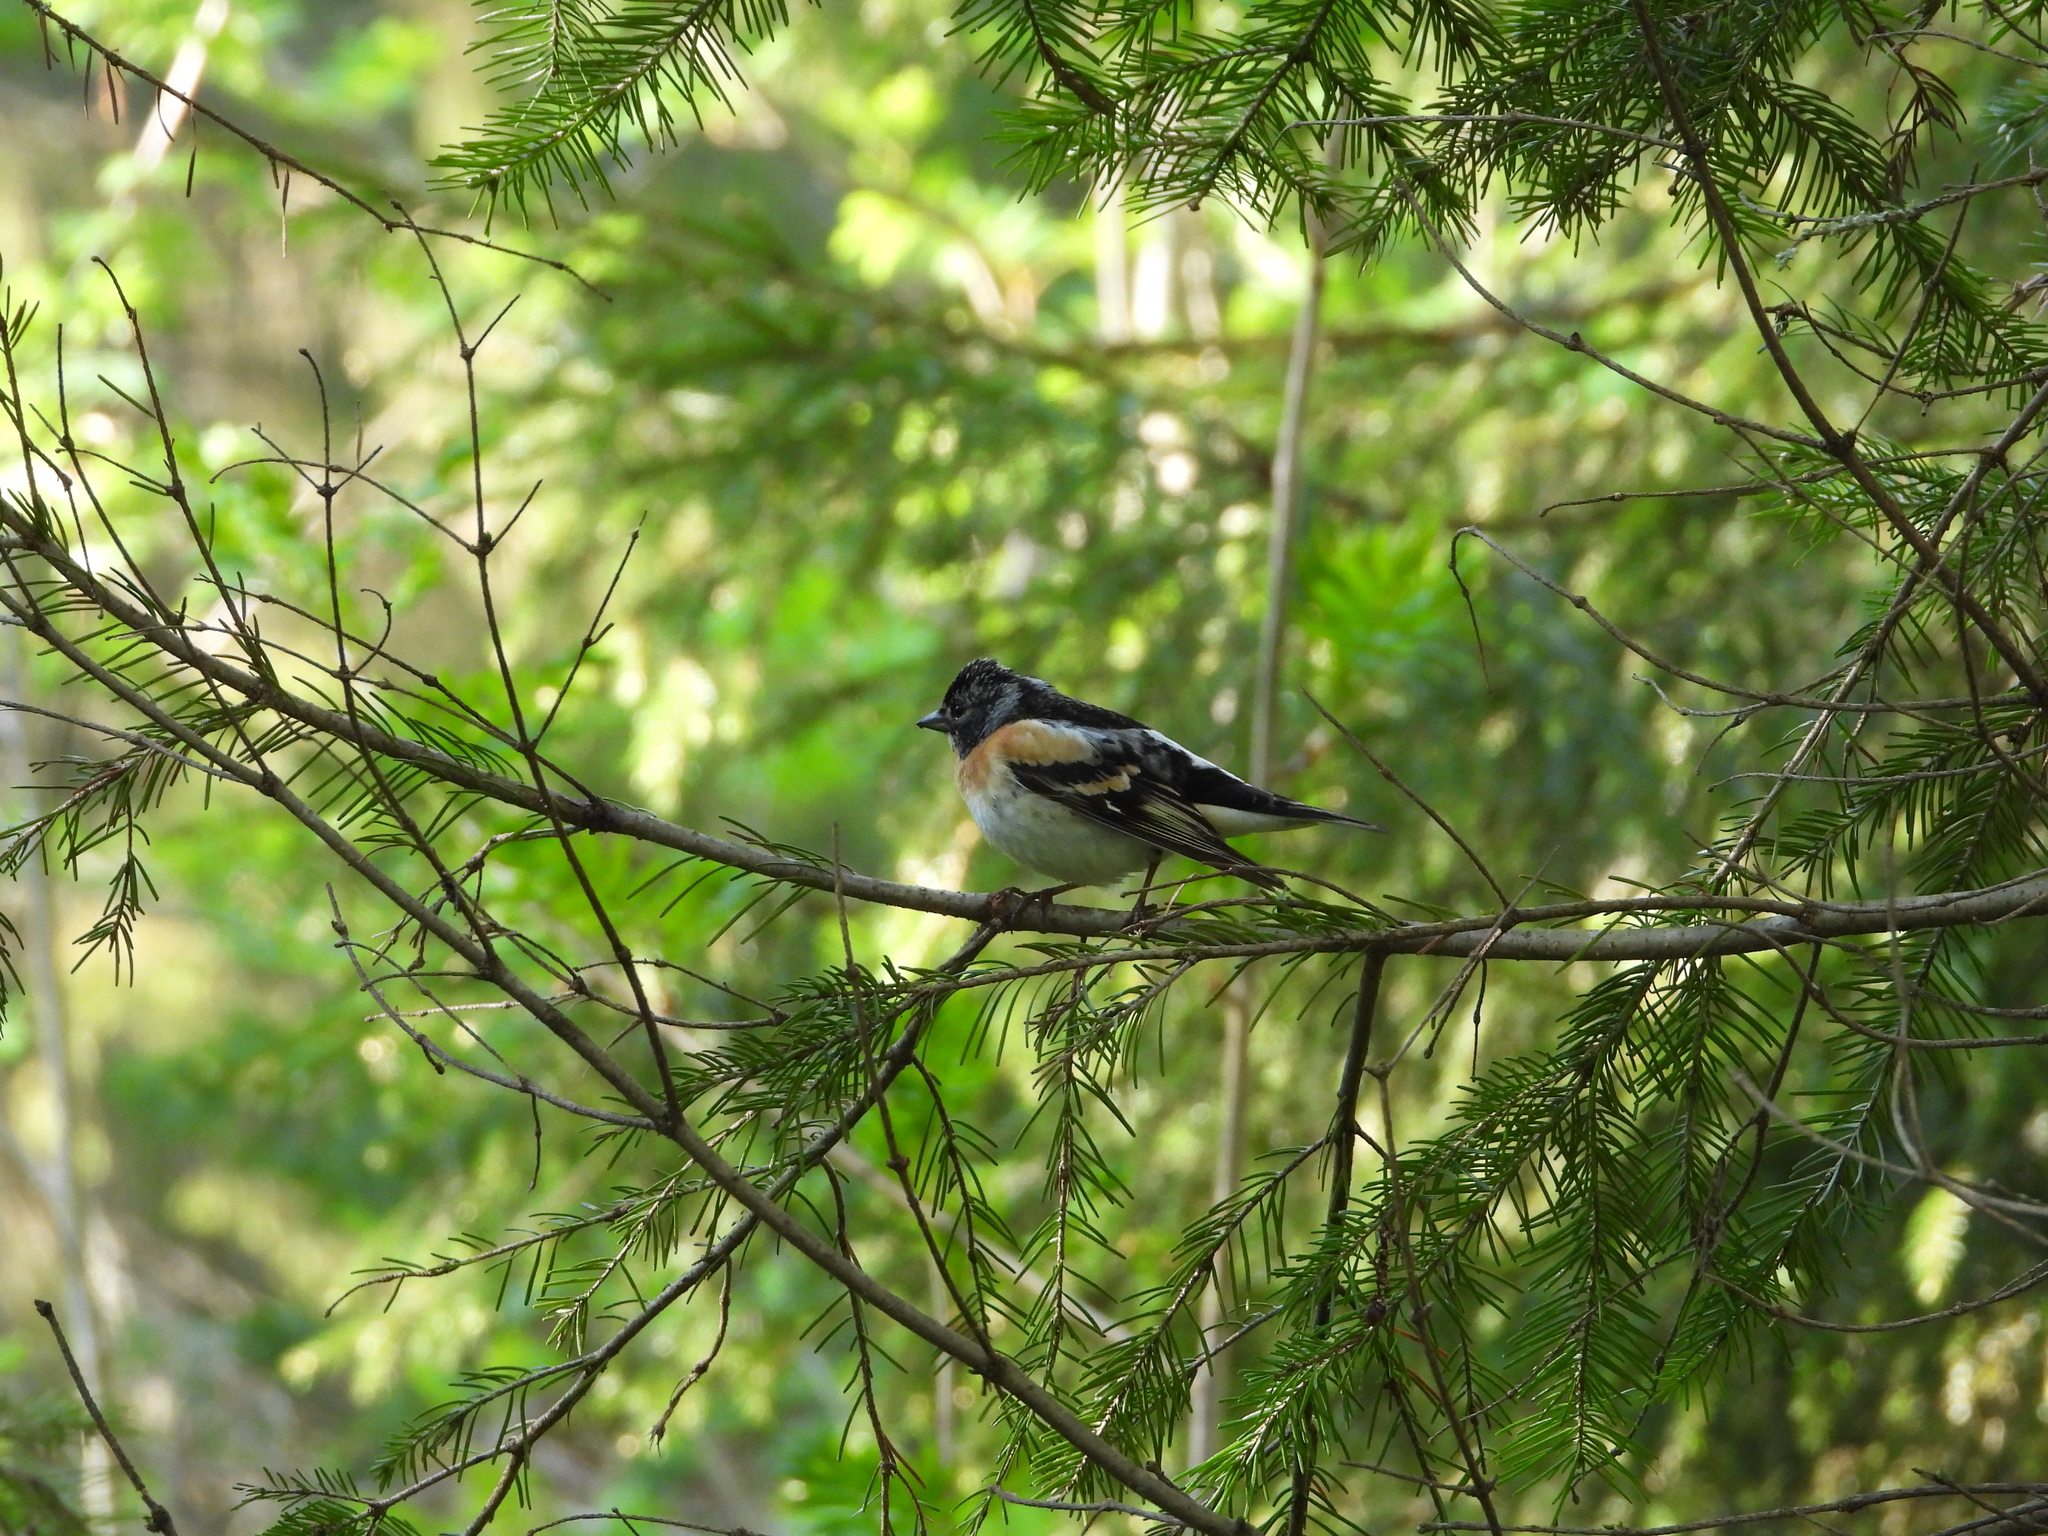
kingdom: Animalia
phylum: Chordata
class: Aves
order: Passeriformes
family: Fringillidae
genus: Fringilla
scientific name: Fringilla montifringilla
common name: Brambling
